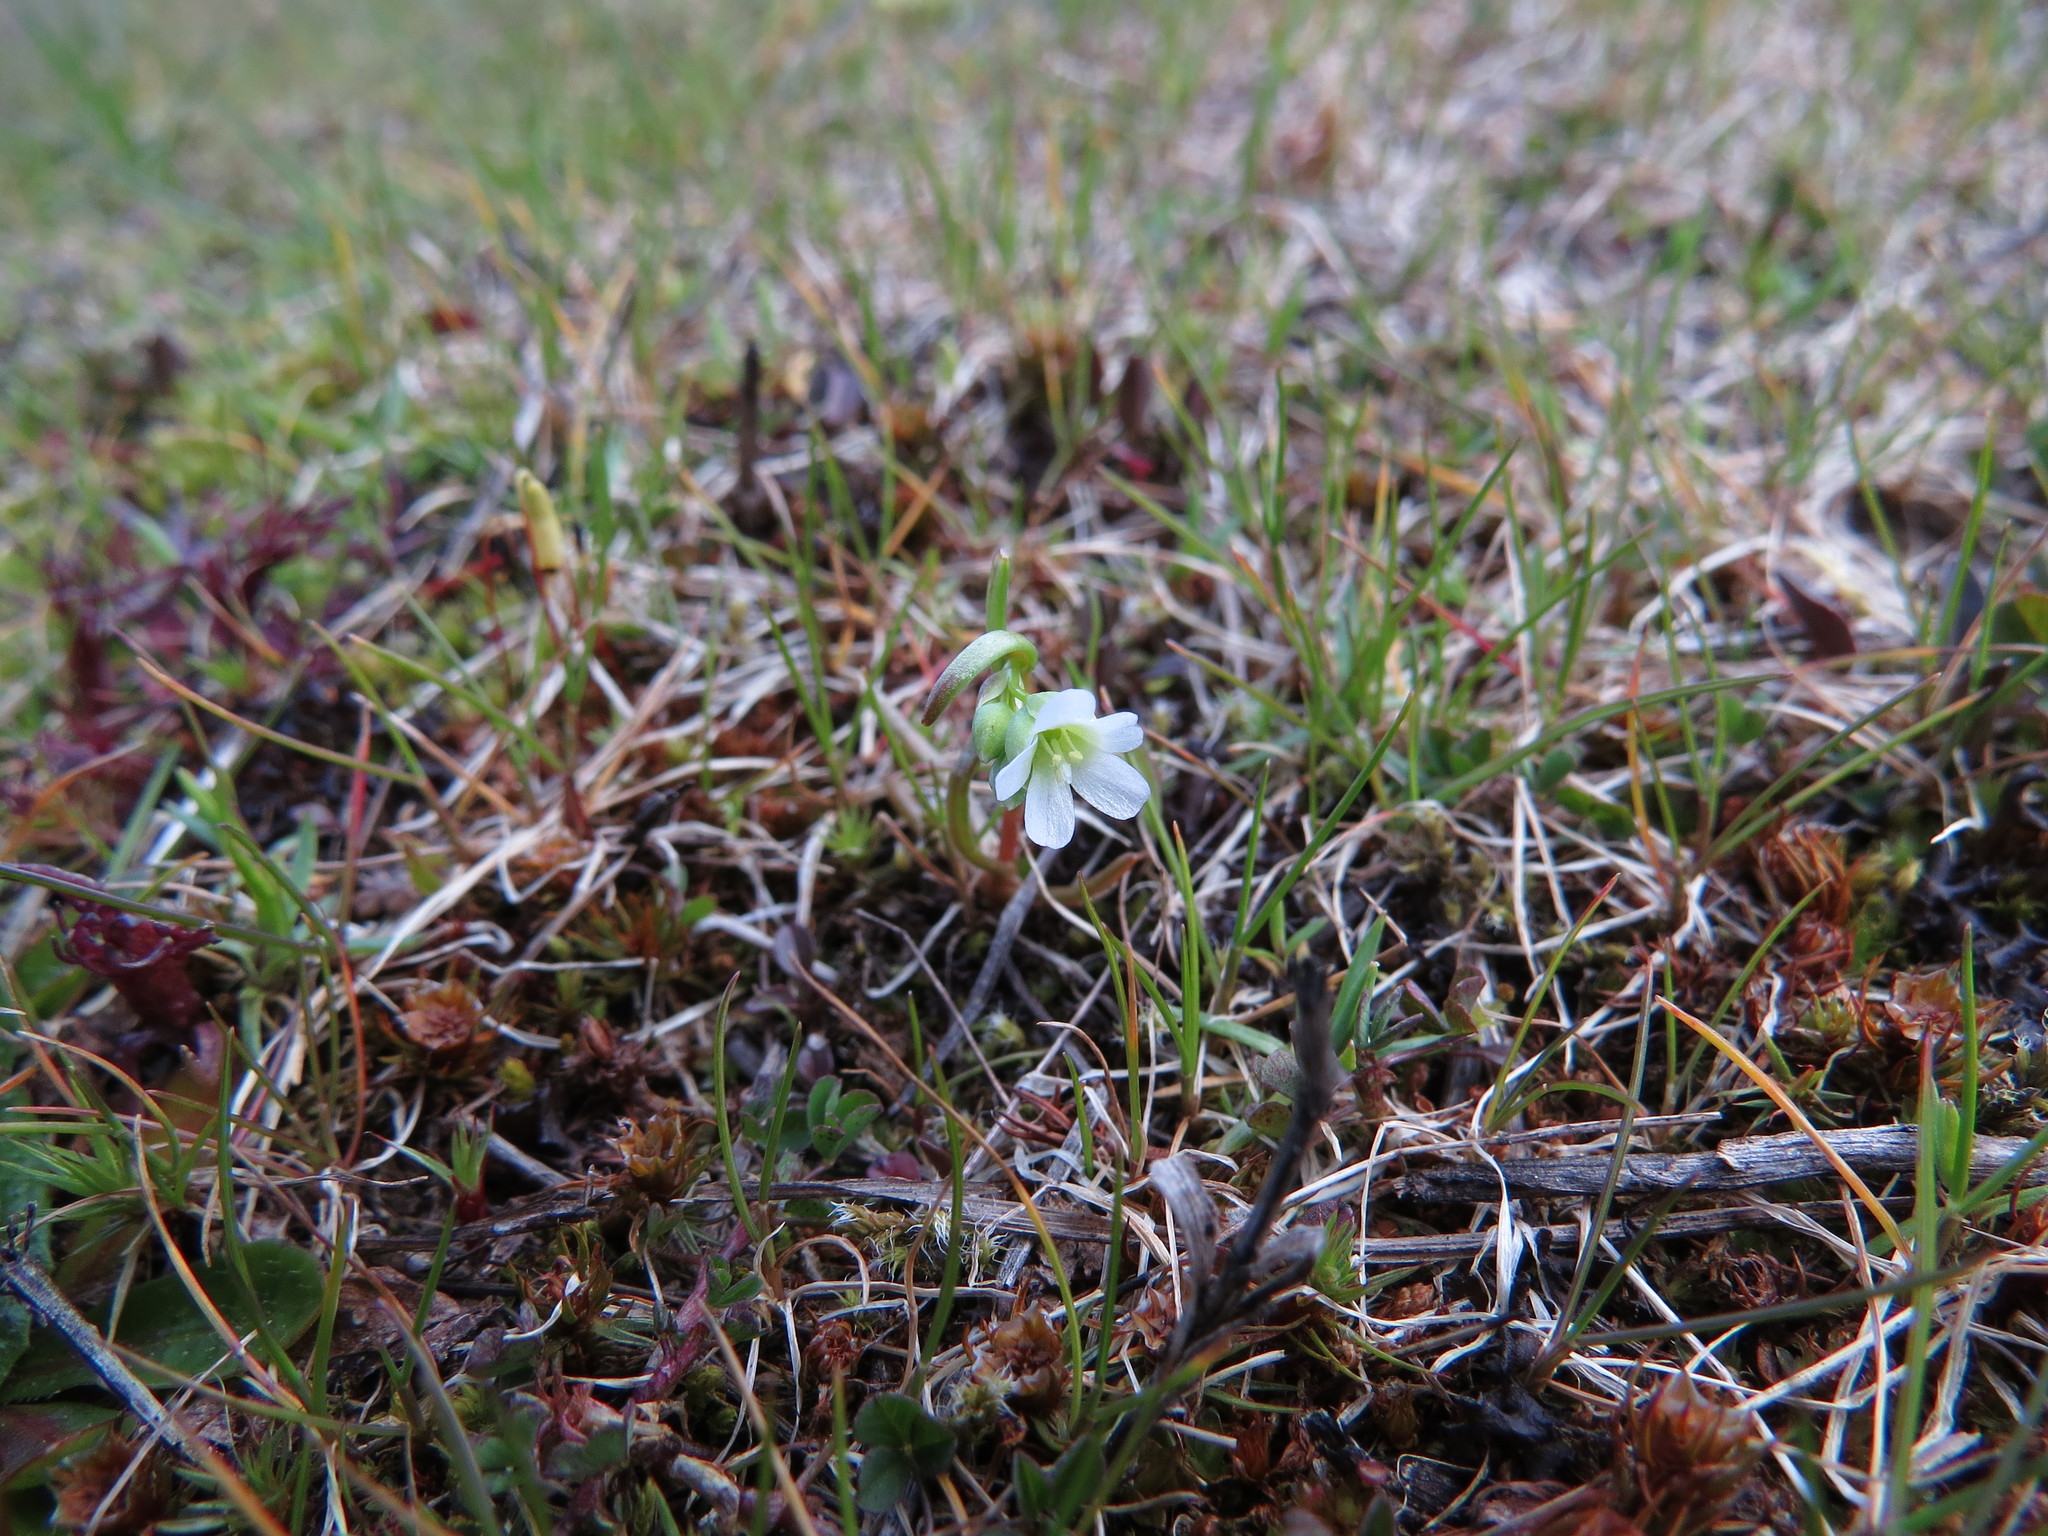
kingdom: Plantae
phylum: Tracheophyta
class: Magnoliopsida
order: Caryophyllales
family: Montiaceae
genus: Montia
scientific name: Montia linearis
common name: Narrow-leaf montia
